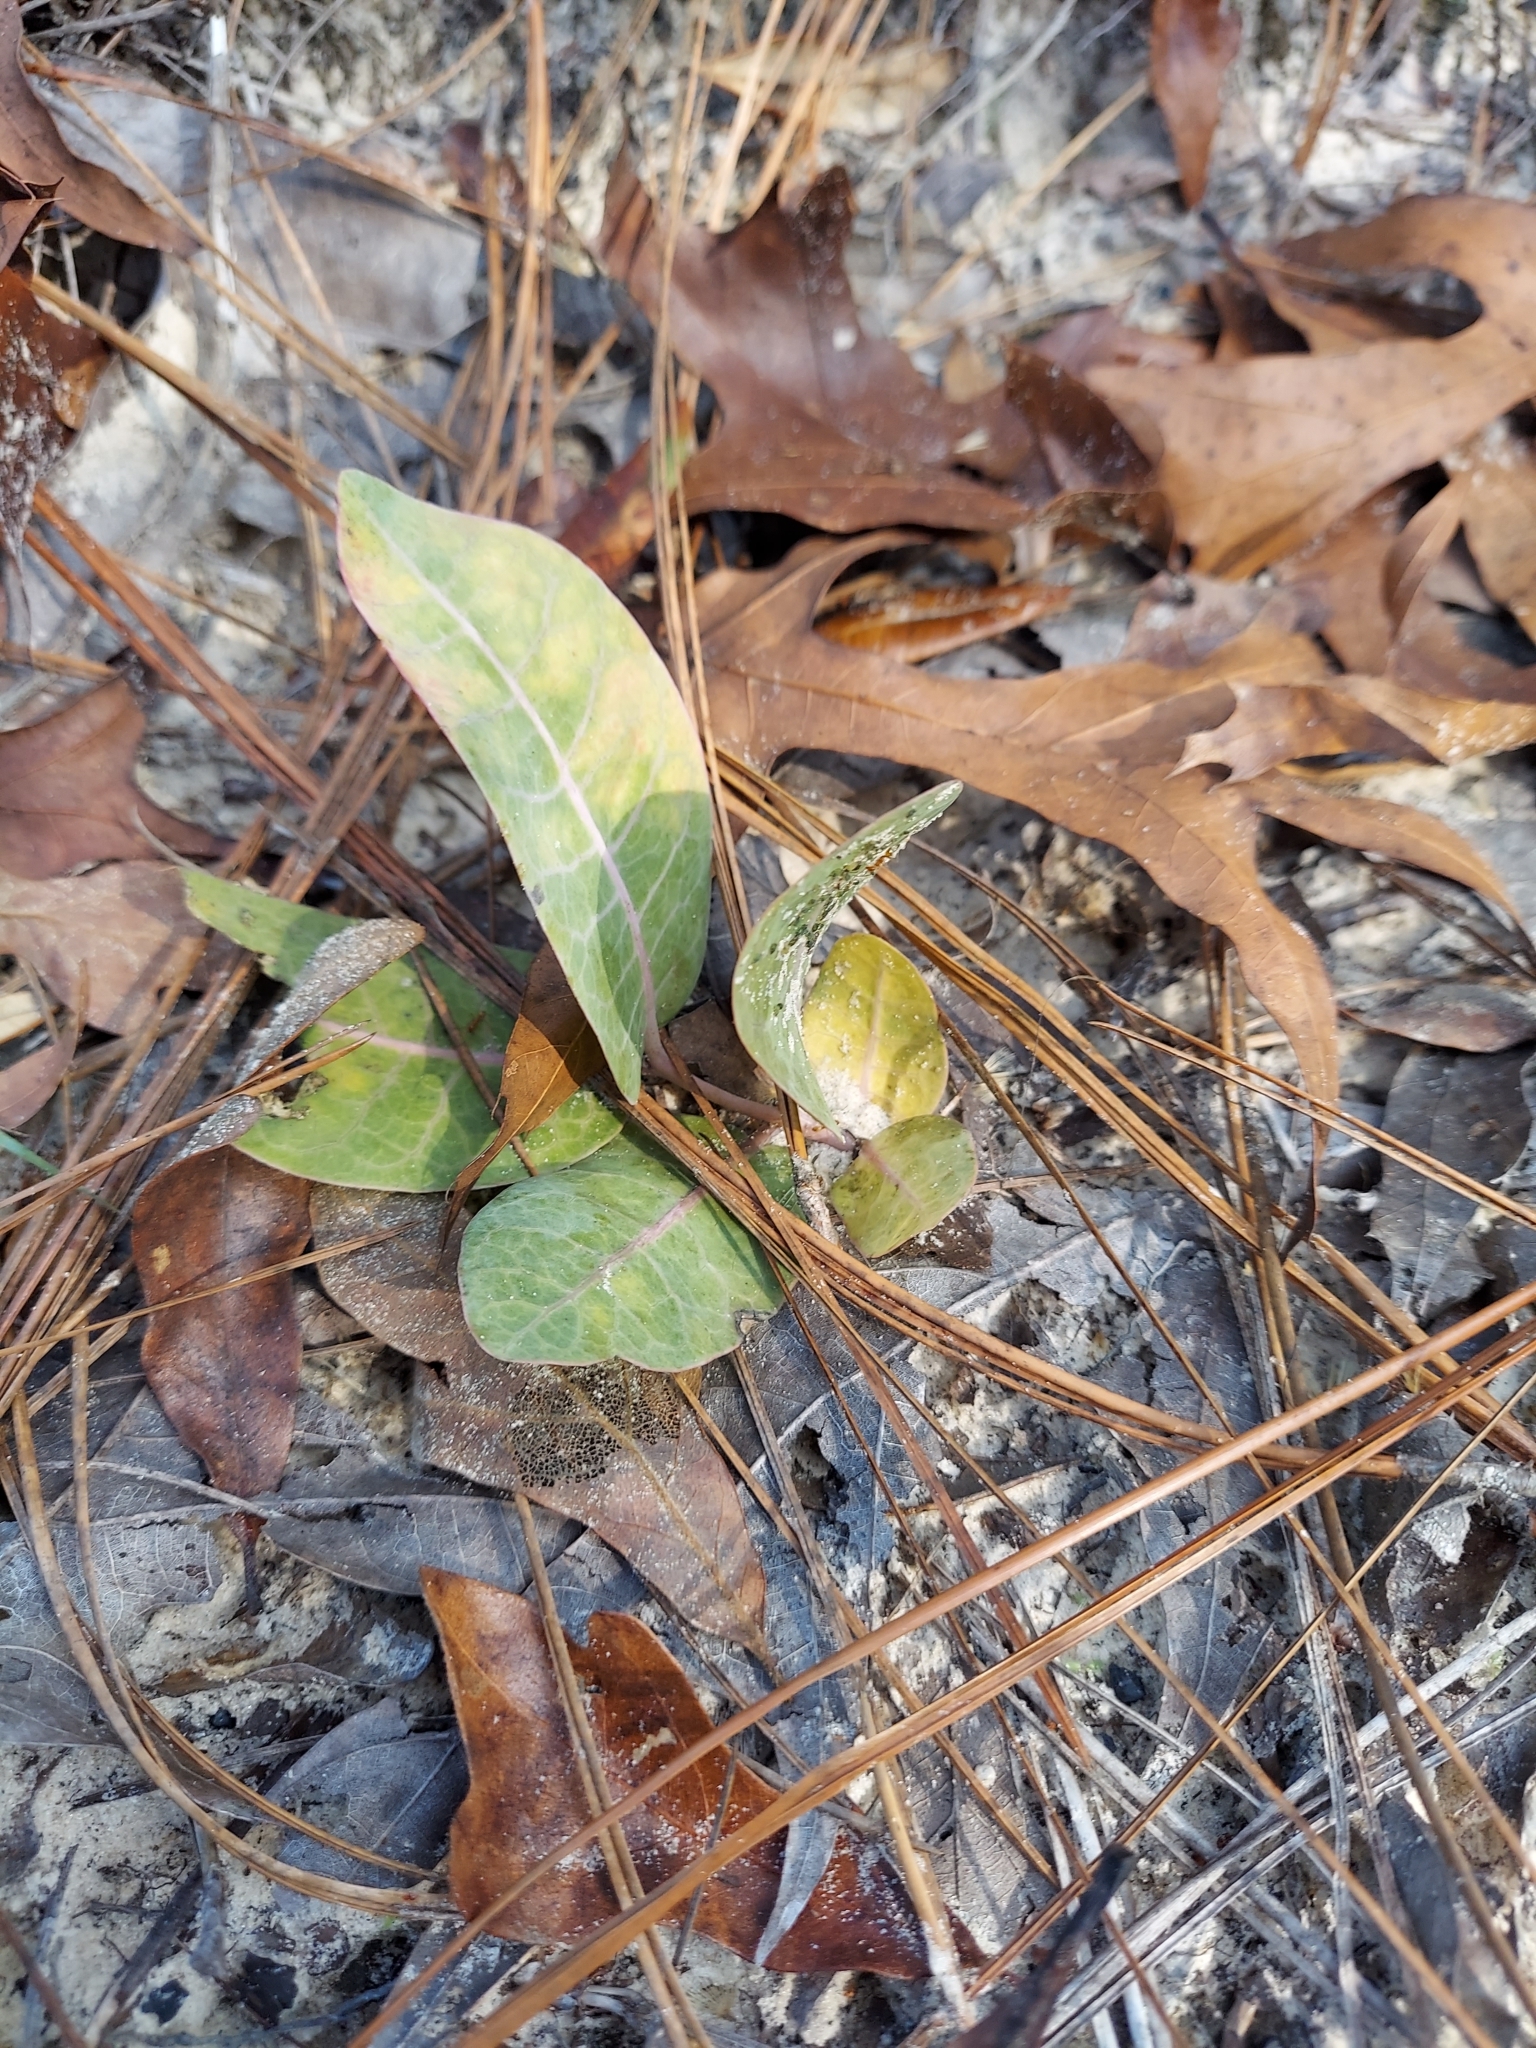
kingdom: Plantae
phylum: Tracheophyta
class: Magnoliopsida
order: Gentianales
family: Apocynaceae
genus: Asclepias
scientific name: Asclepias humistrata
